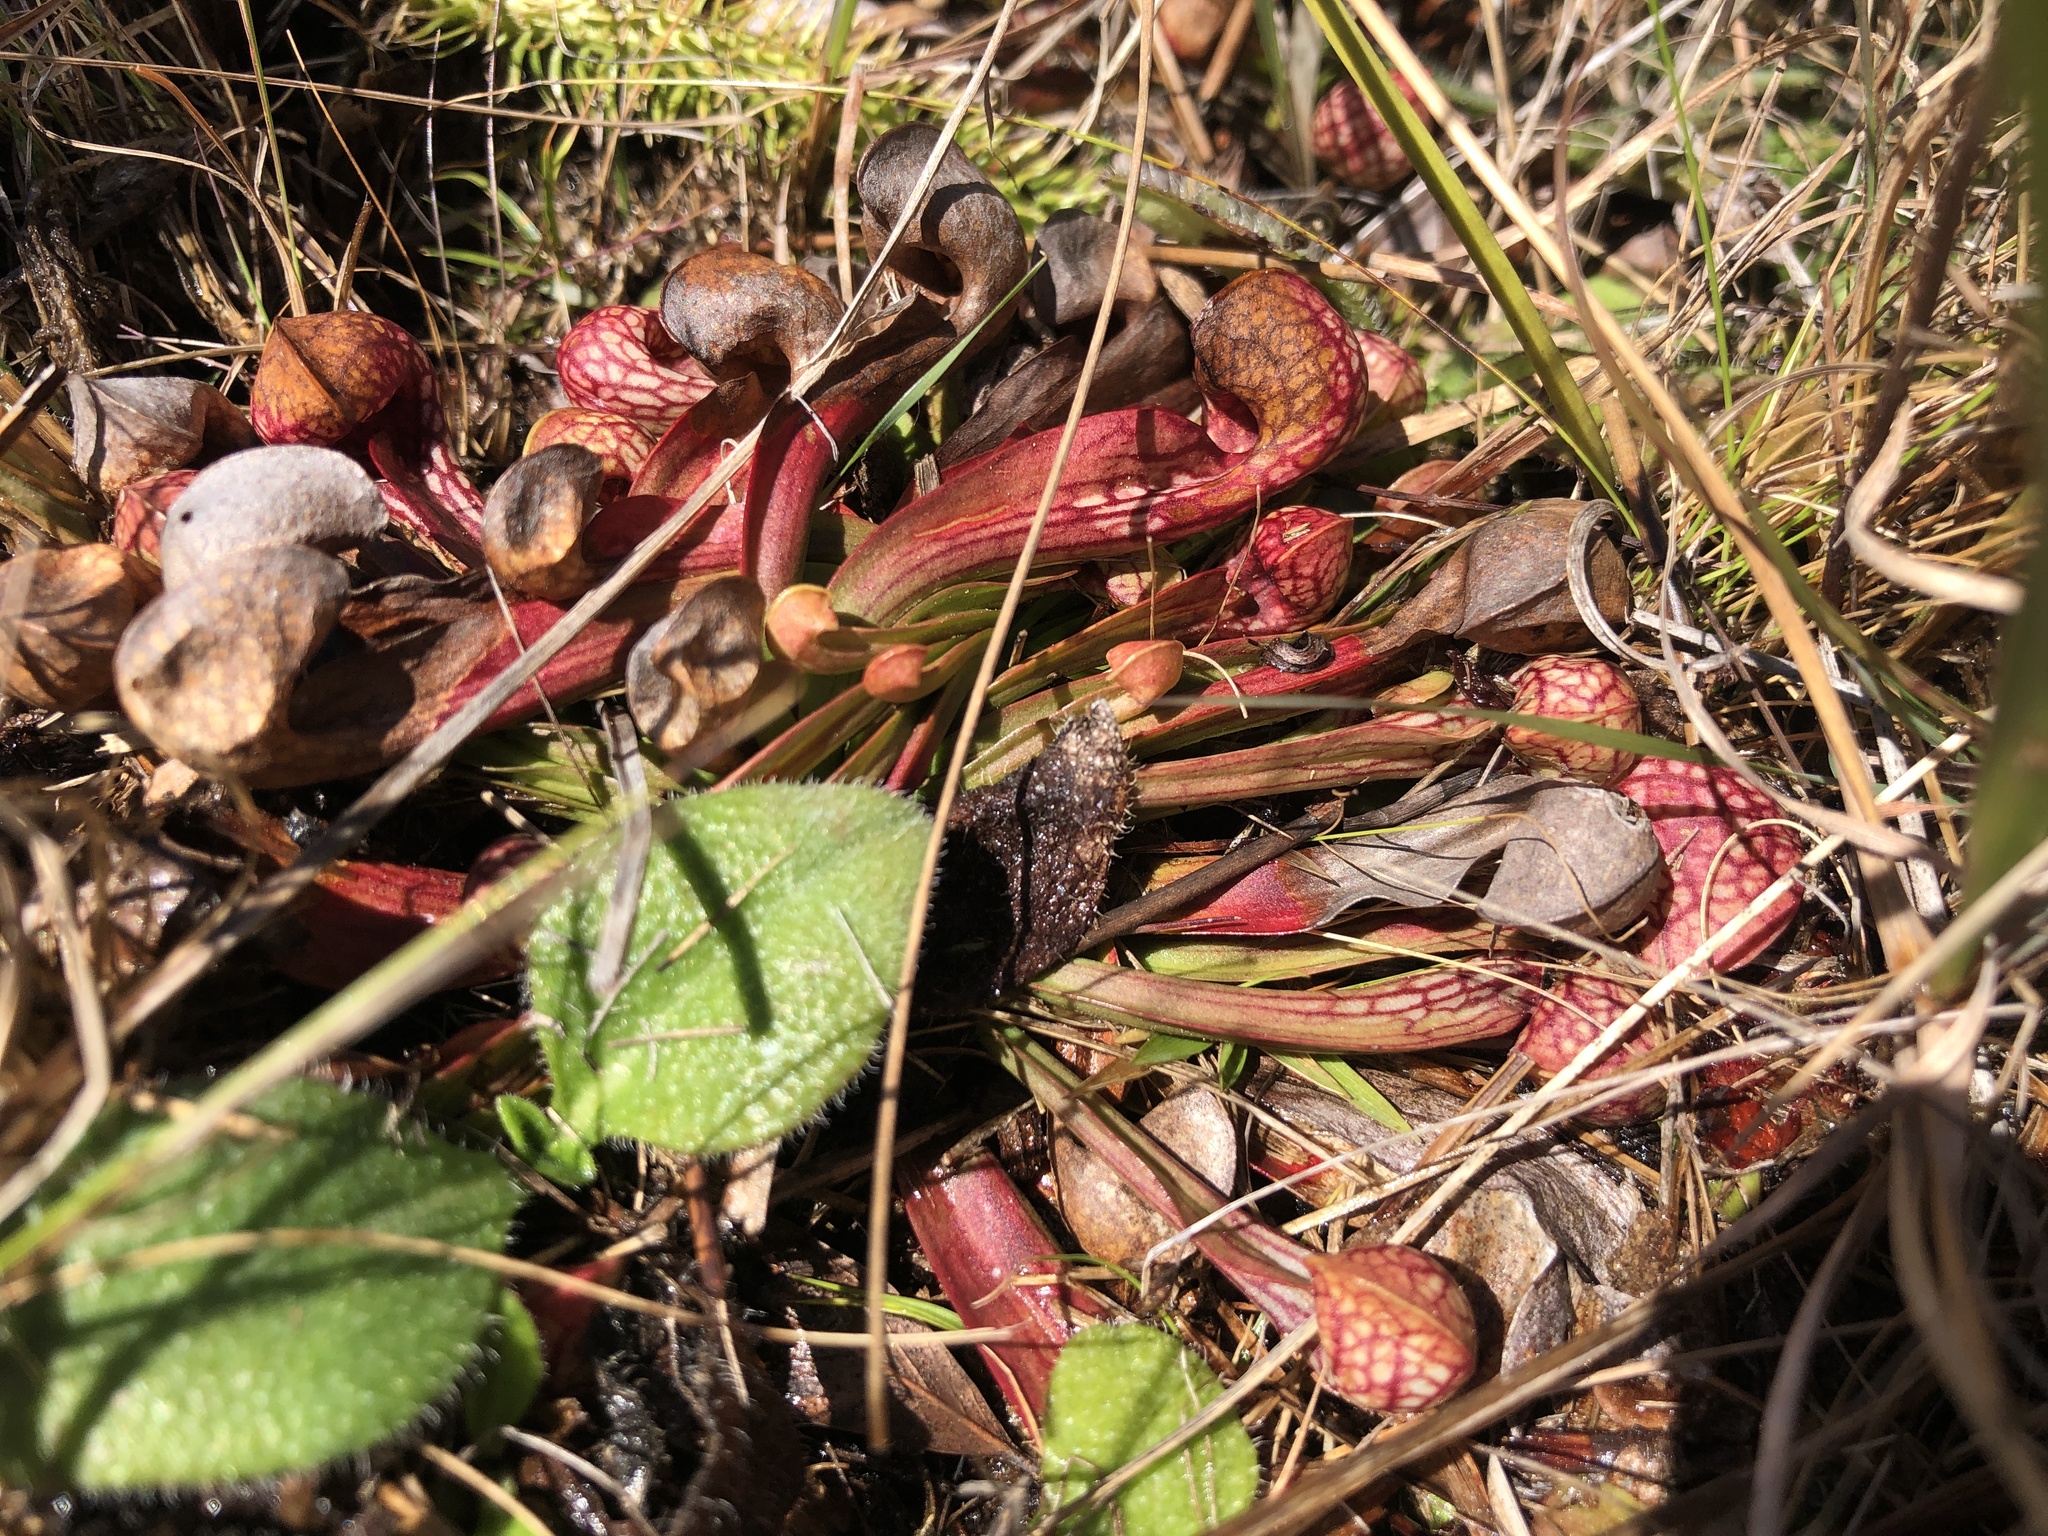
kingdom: Plantae
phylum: Tracheophyta
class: Magnoliopsida
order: Ericales
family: Sarraceniaceae
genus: Sarracenia
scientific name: Sarracenia psittacina
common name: Parrot pitcherplant
